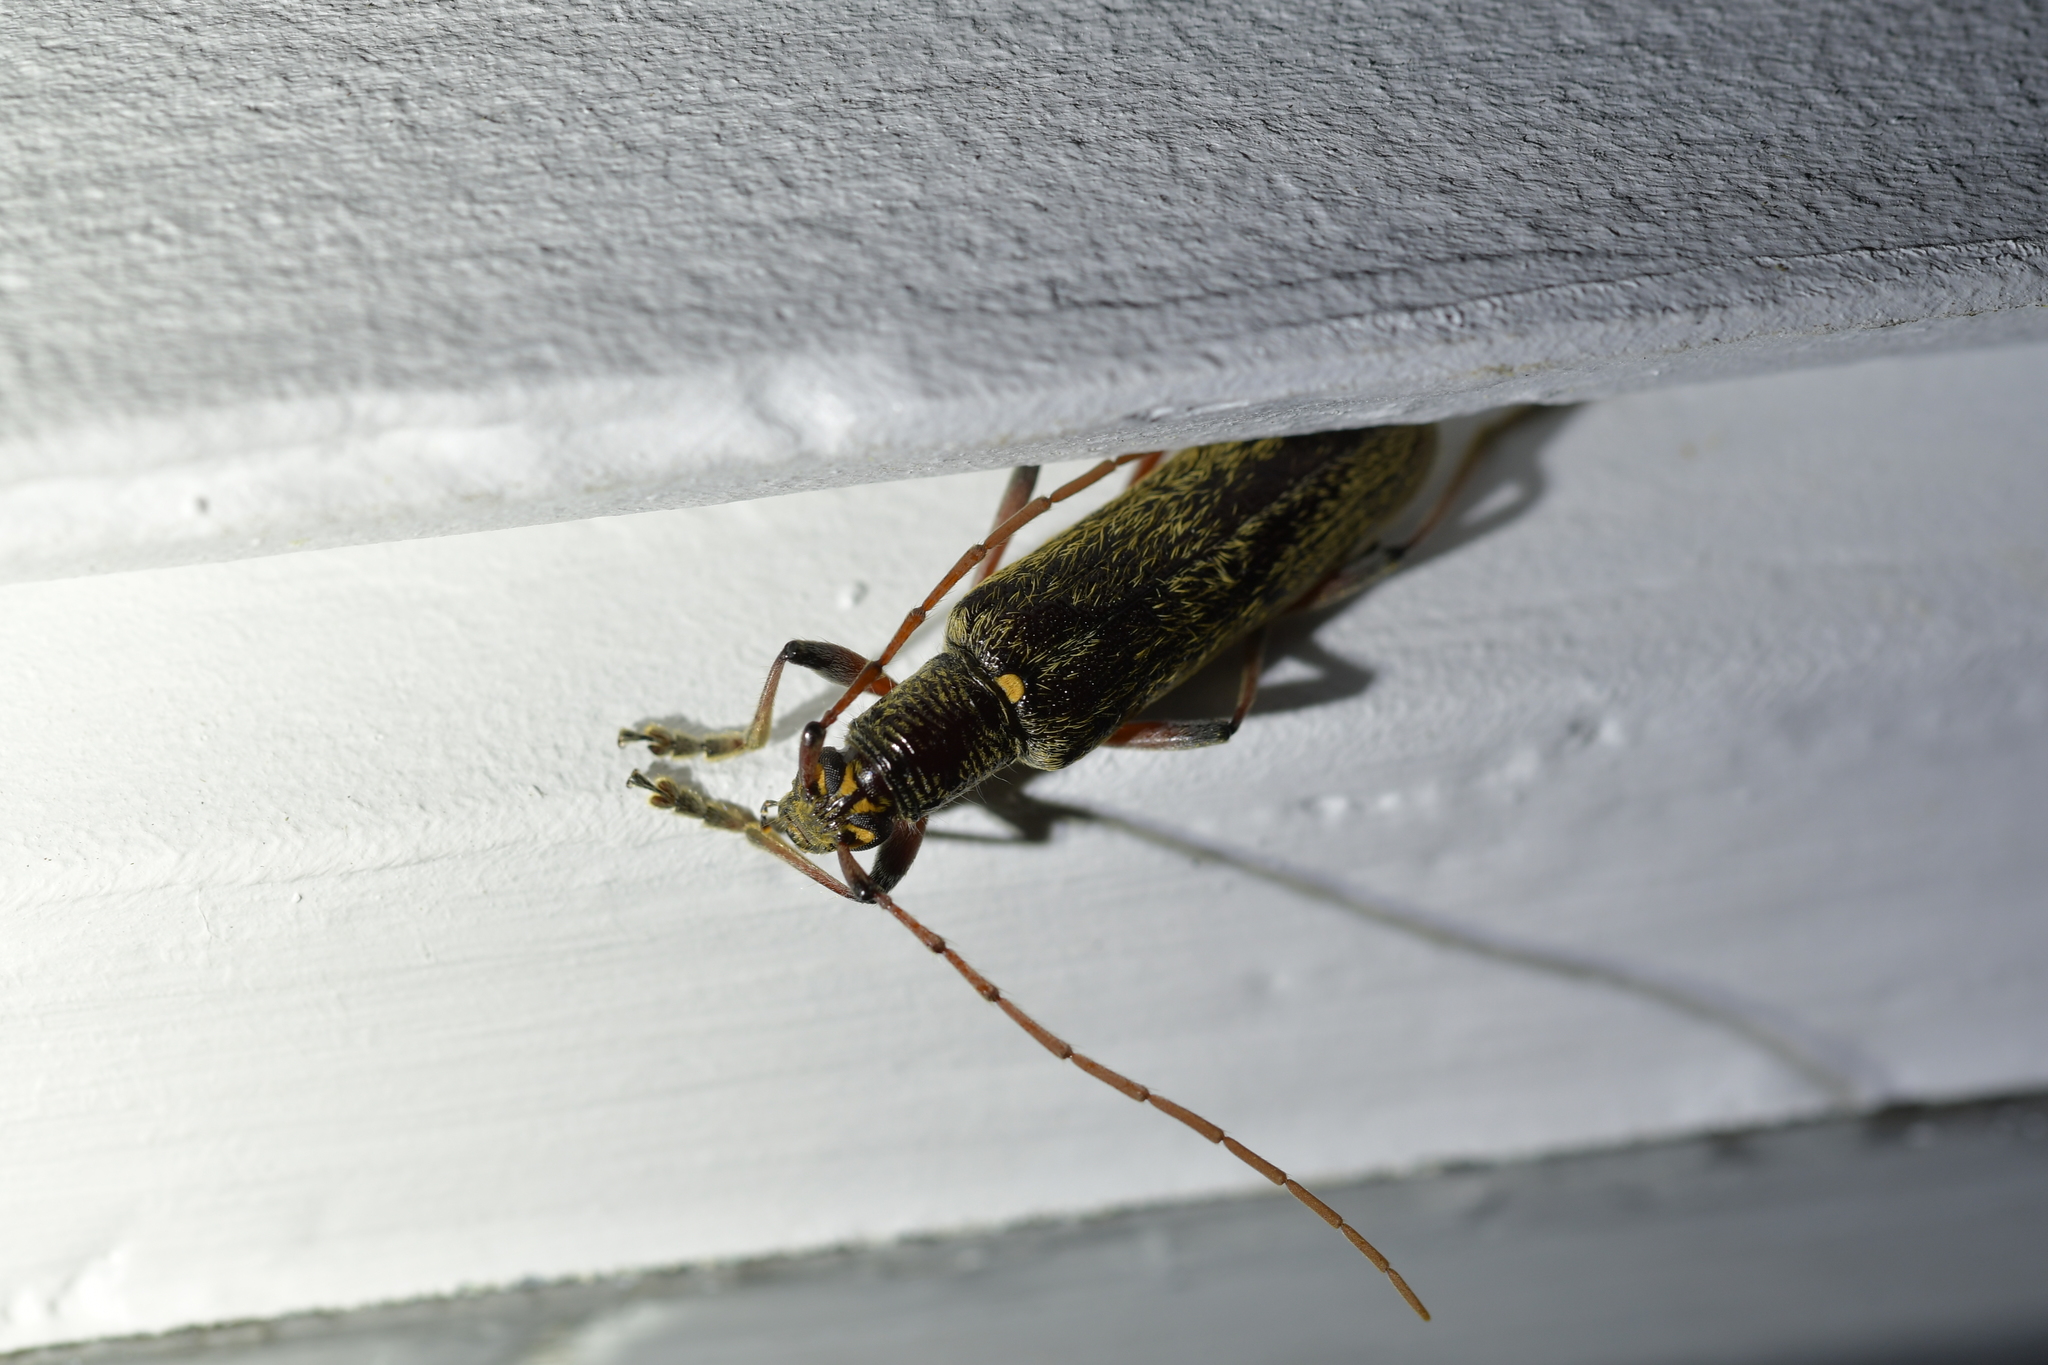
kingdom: Animalia
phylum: Arthropoda
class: Insecta
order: Coleoptera
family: Cerambycidae
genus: Oemona
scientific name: Oemona hirta
